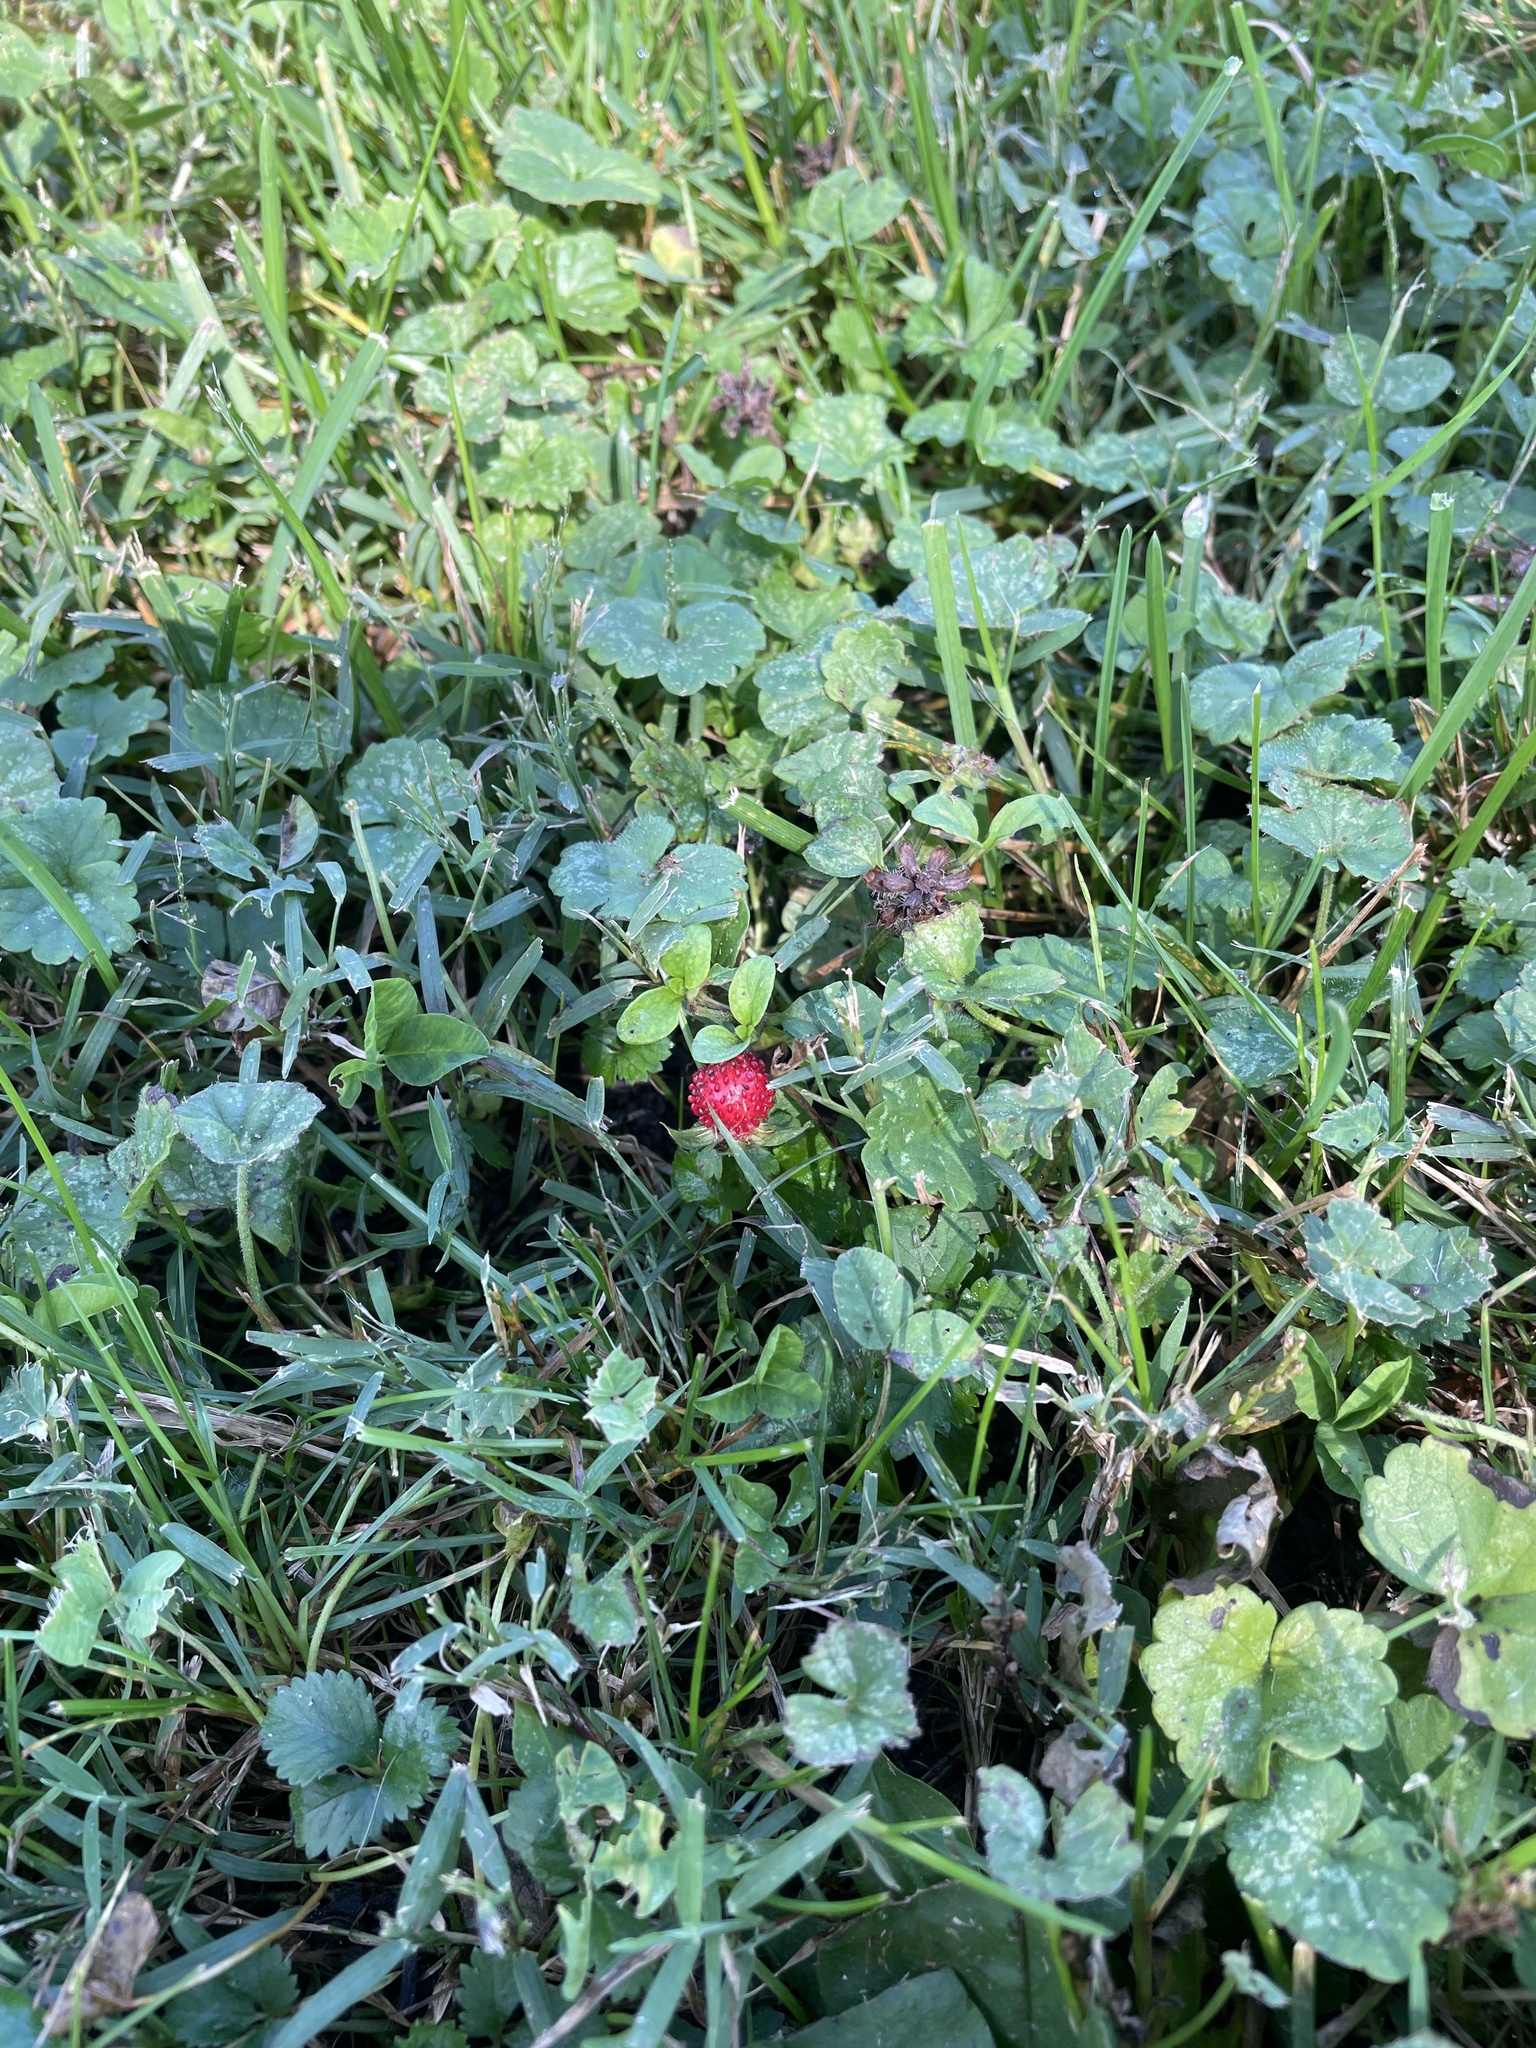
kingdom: Plantae
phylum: Tracheophyta
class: Magnoliopsida
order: Rosales
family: Rosaceae
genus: Potentilla
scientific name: Potentilla indica
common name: Yellow-flowered strawberry
